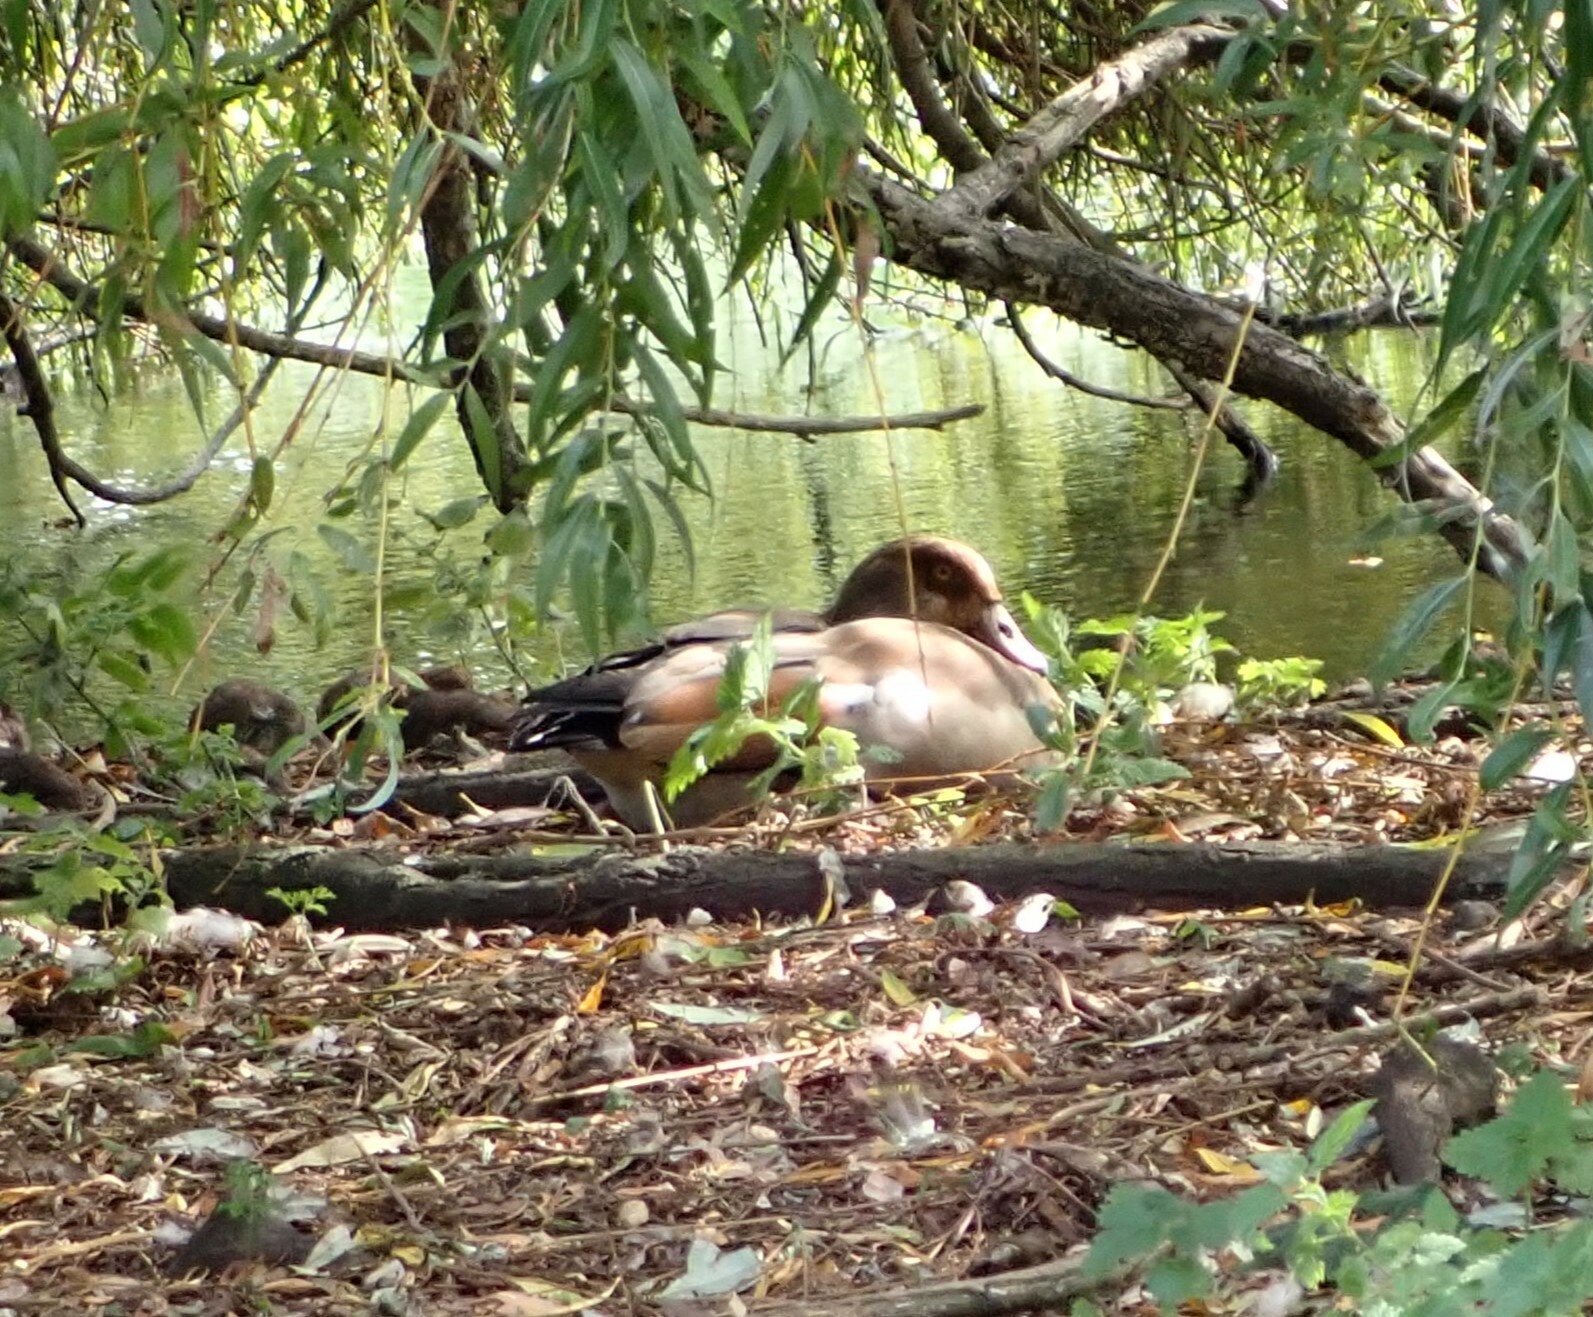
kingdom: Animalia
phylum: Chordata
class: Aves
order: Anseriformes
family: Anatidae
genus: Alopochen
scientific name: Alopochen aegyptiaca
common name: Egyptian goose
